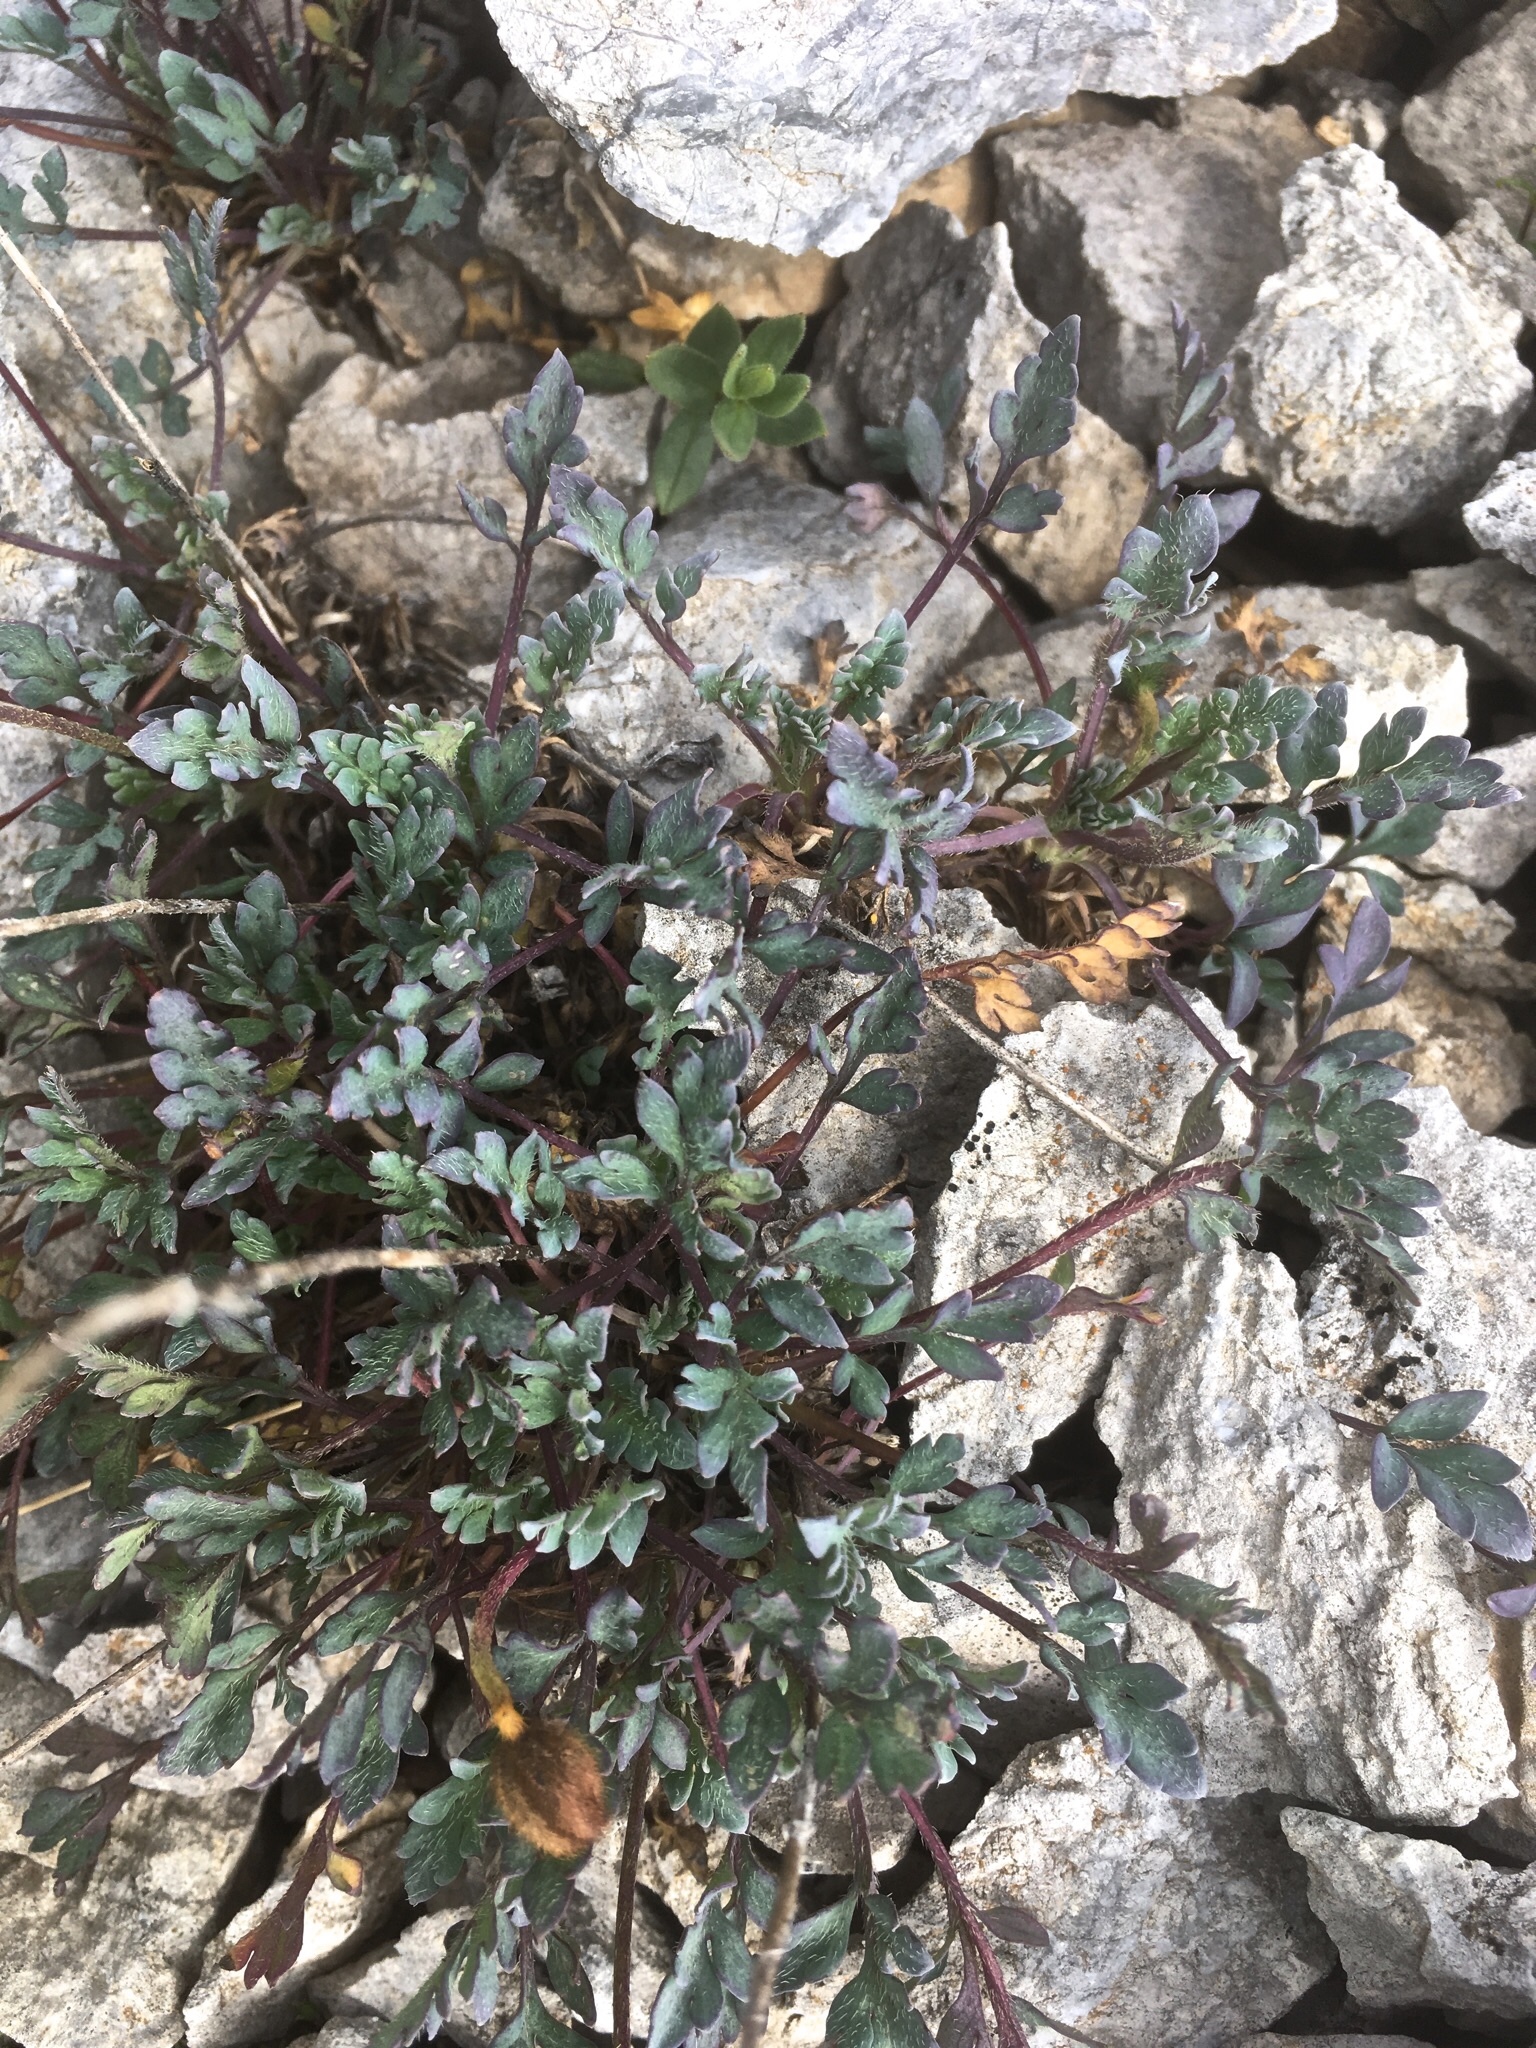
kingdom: Plantae
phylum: Tracheophyta
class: Magnoliopsida
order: Ranunculales
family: Papaveraceae
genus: Papaver
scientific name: Papaver alpinum
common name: Austrian poppy
